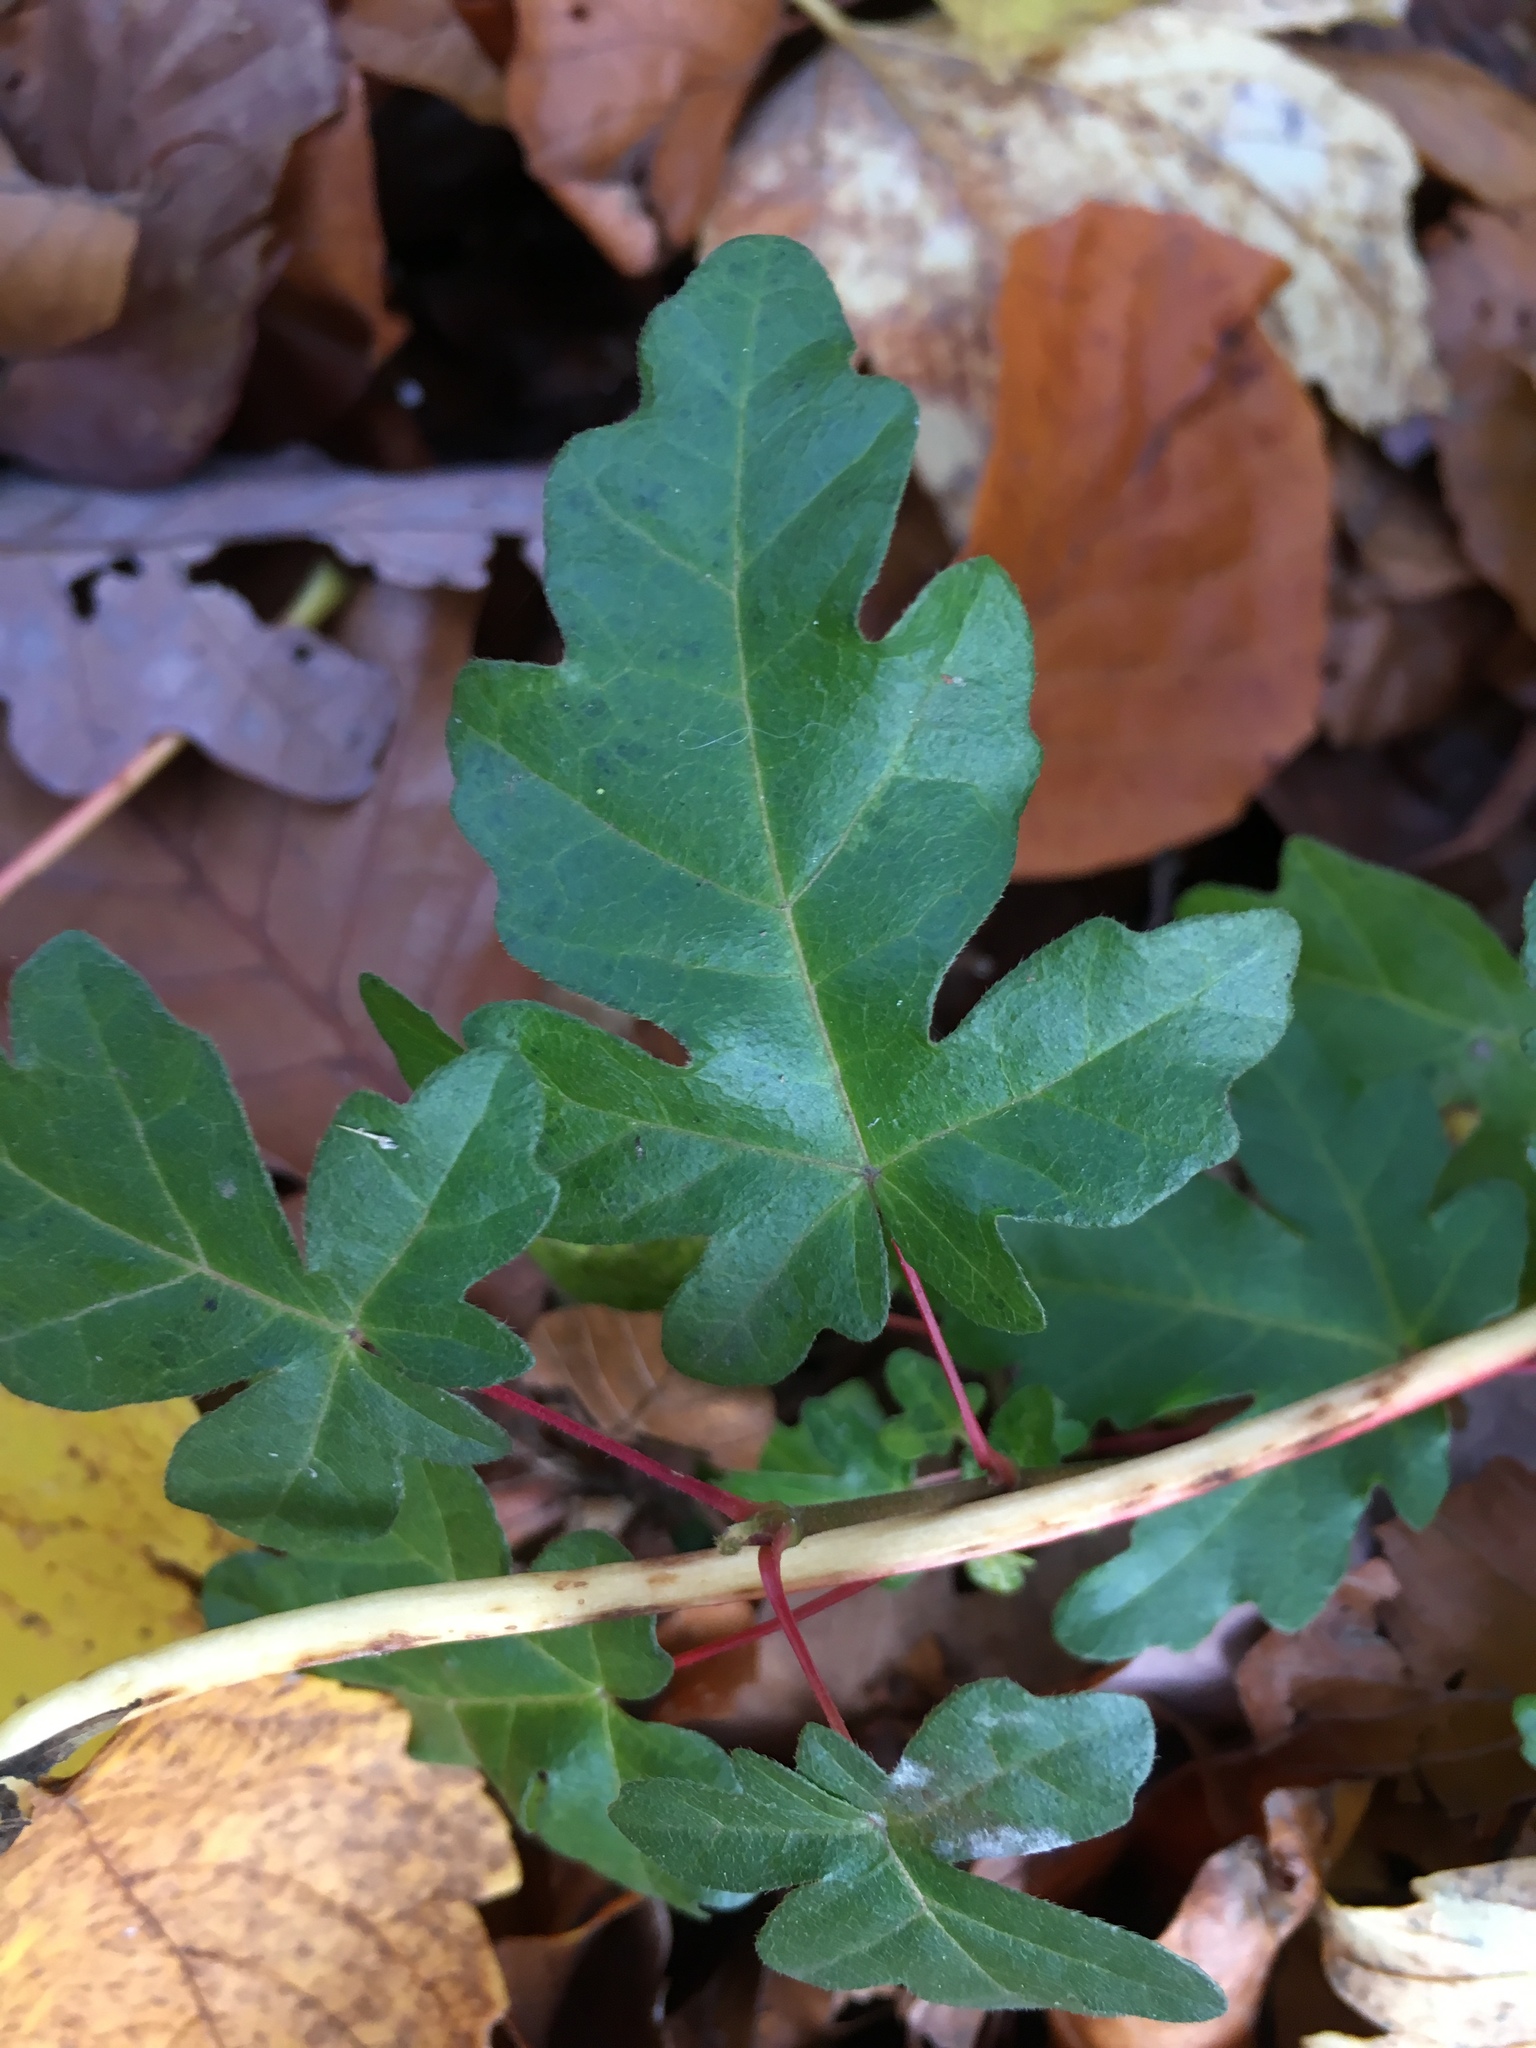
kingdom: Plantae
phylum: Tracheophyta
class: Magnoliopsida
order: Sapindales
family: Sapindaceae
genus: Acer
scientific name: Acer campestre
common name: Field maple
